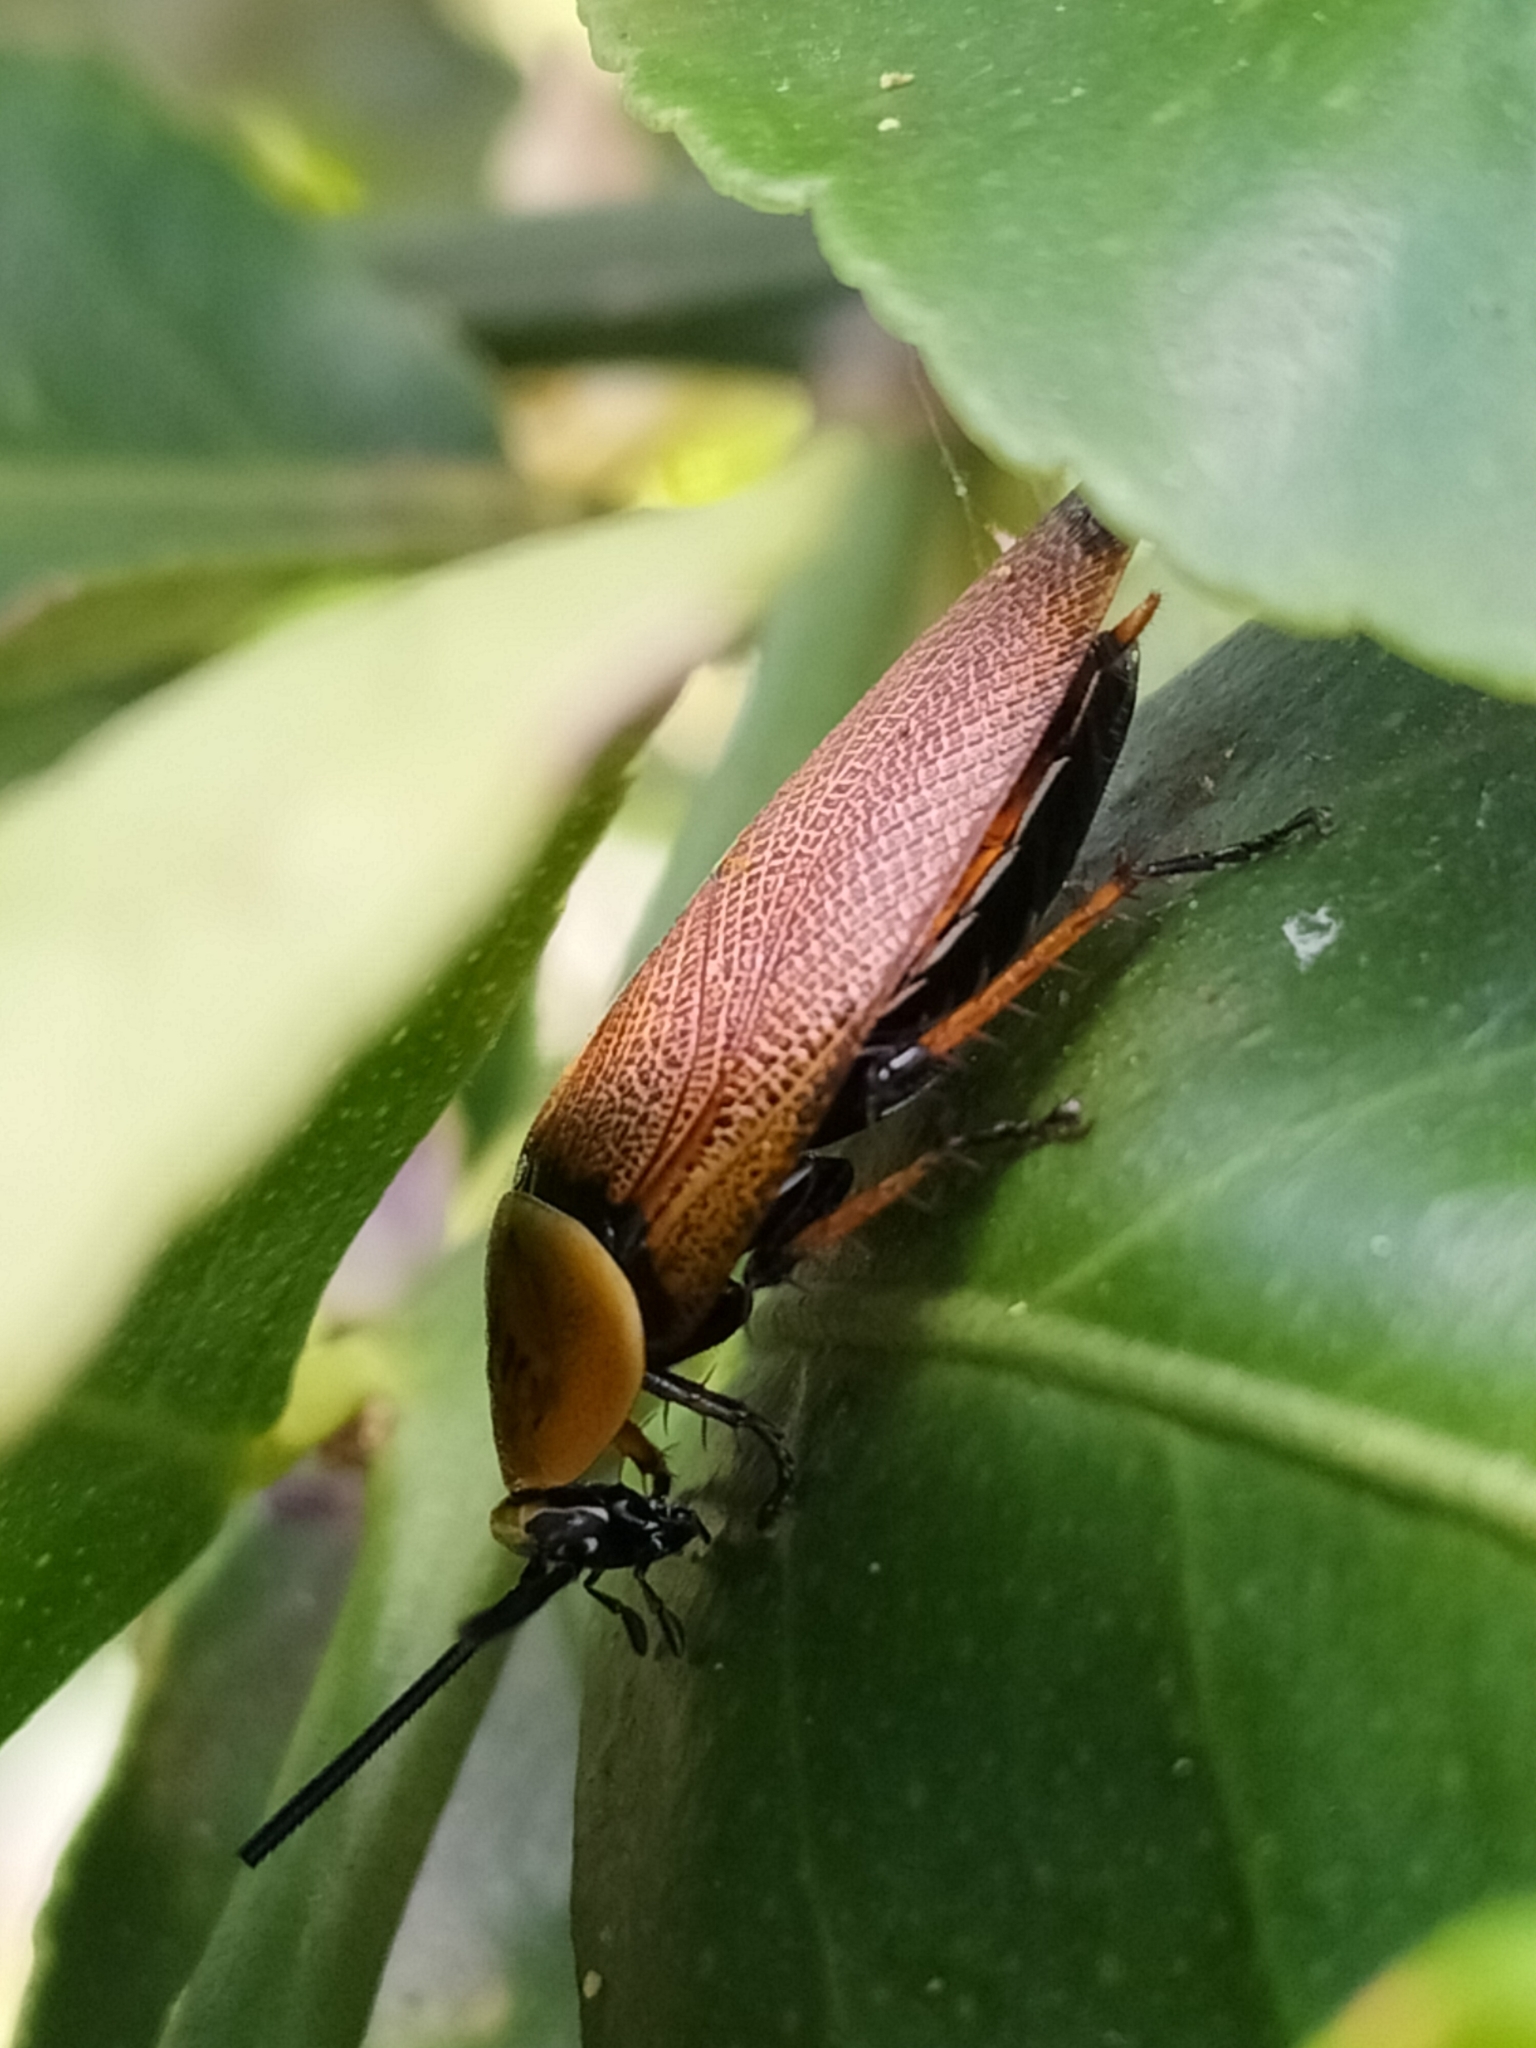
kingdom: Animalia
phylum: Arthropoda
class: Insecta
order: Blattodea
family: Ectobiidae
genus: Ellipsidion
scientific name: Ellipsidion amplum
